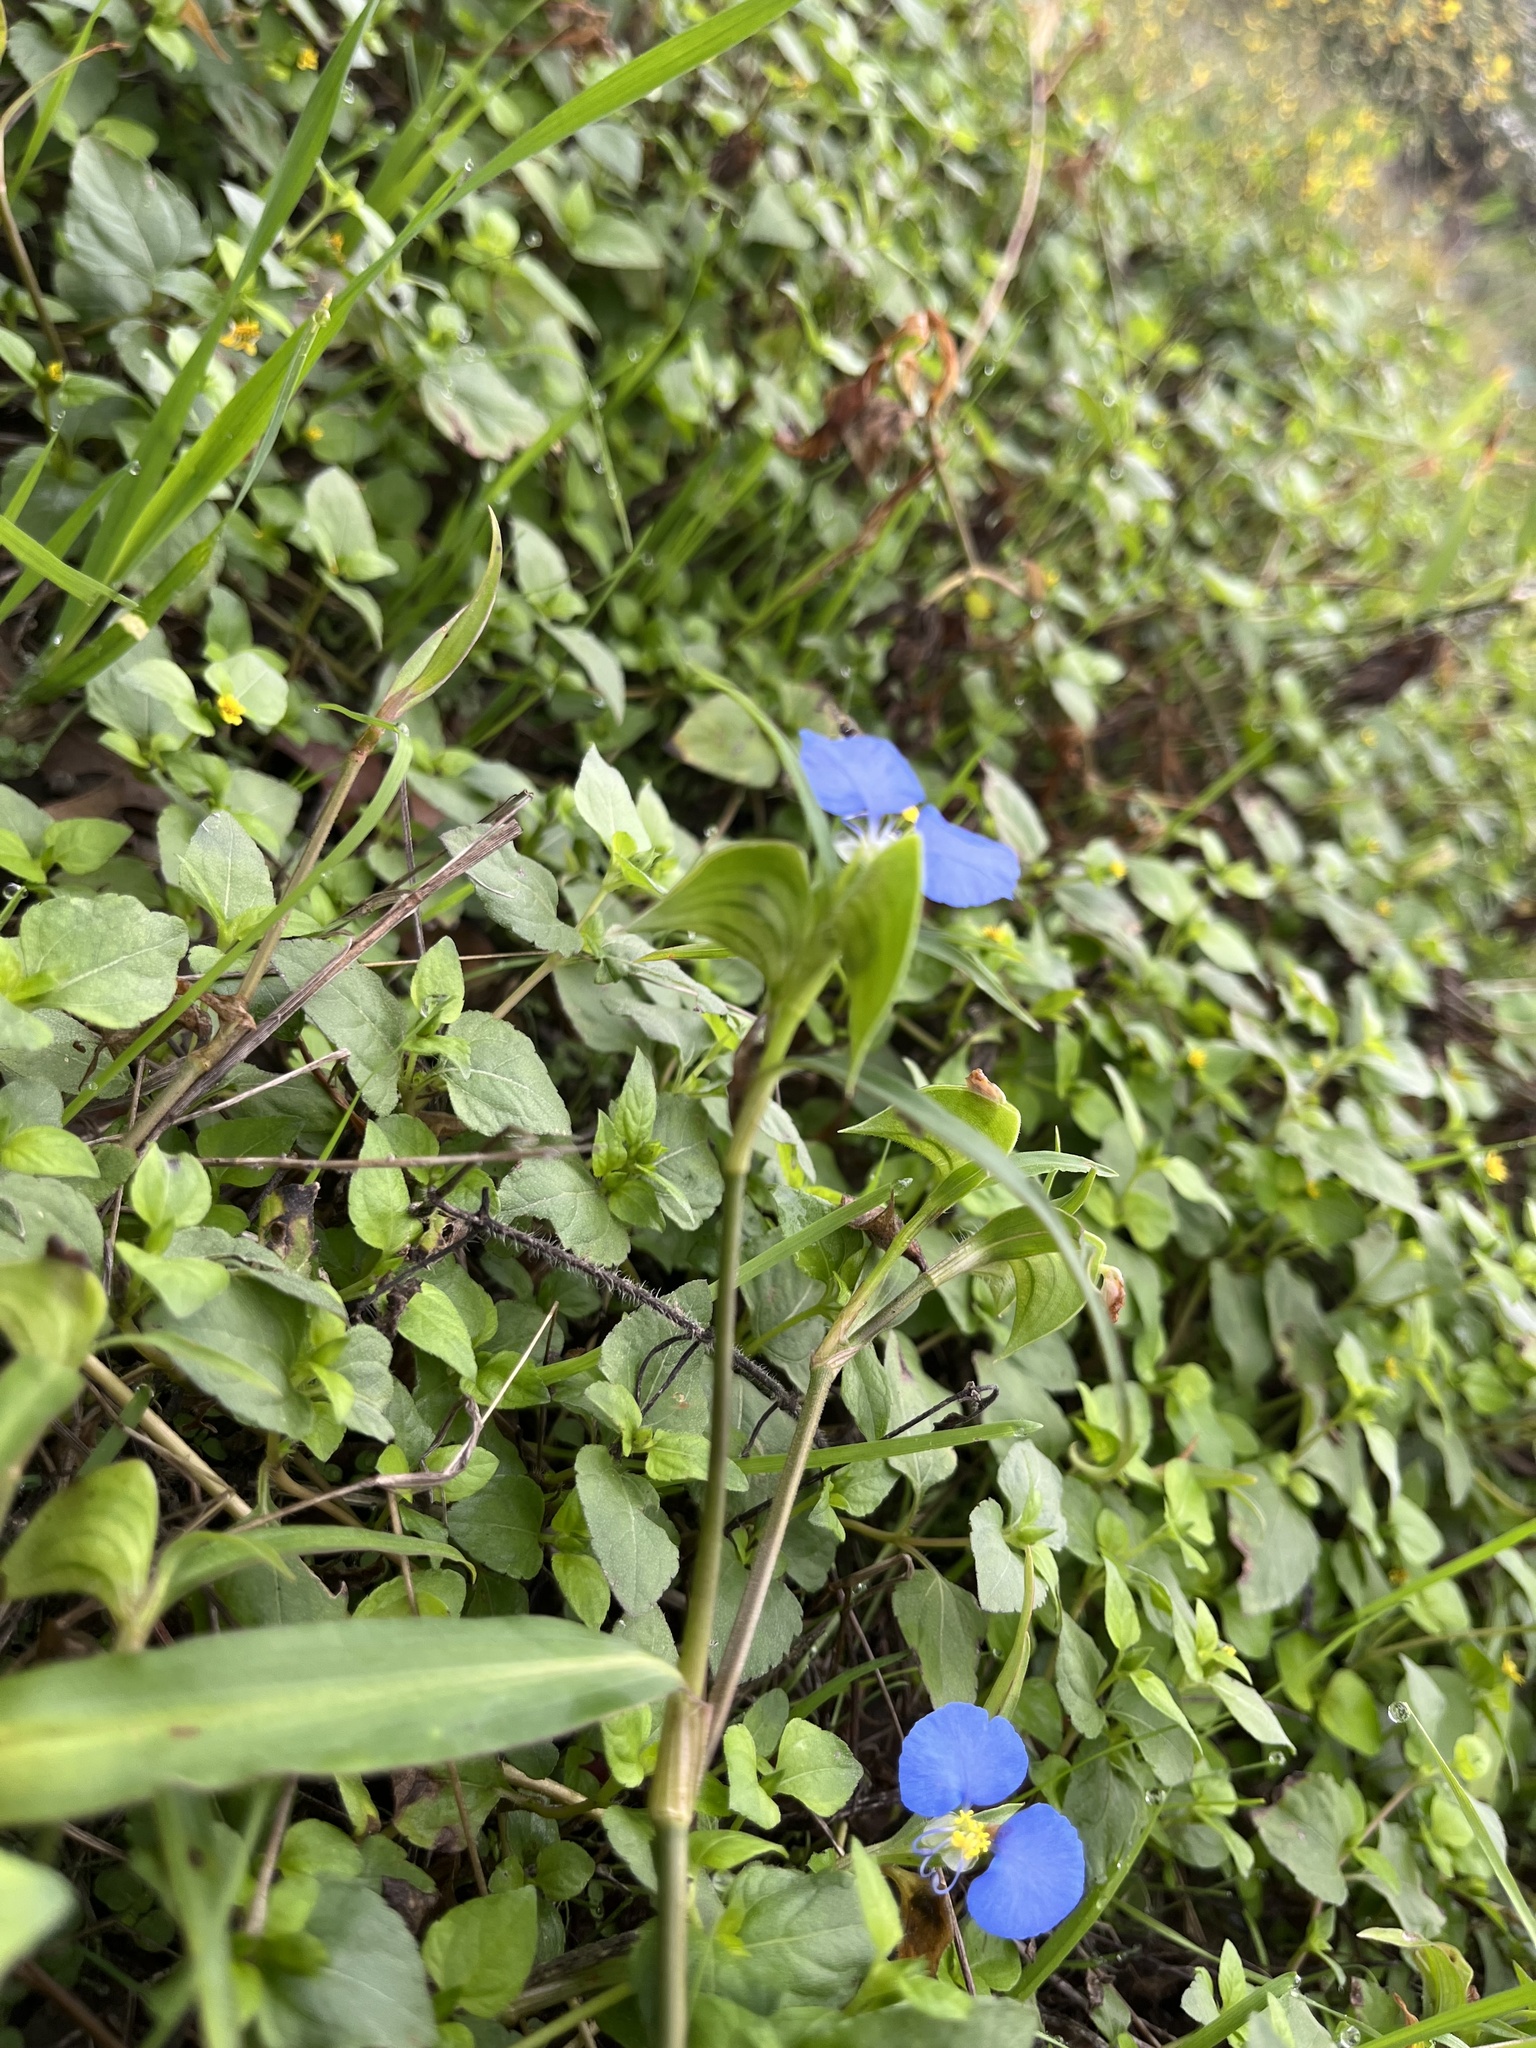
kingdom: Plantae
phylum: Tracheophyta
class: Liliopsida
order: Commelinales
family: Commelinaceae
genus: Commelina
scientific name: Commelina erecta
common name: Blousel blommetjie
